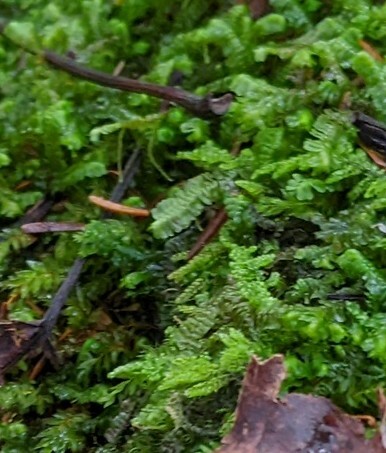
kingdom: Plantae
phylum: Marchantiophyta
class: Jungermanniopsida
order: Jungermanniales
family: Lepidoziaceae
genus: Bazzania
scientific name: Bazzania trilobata
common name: Three-lobed whipwort
